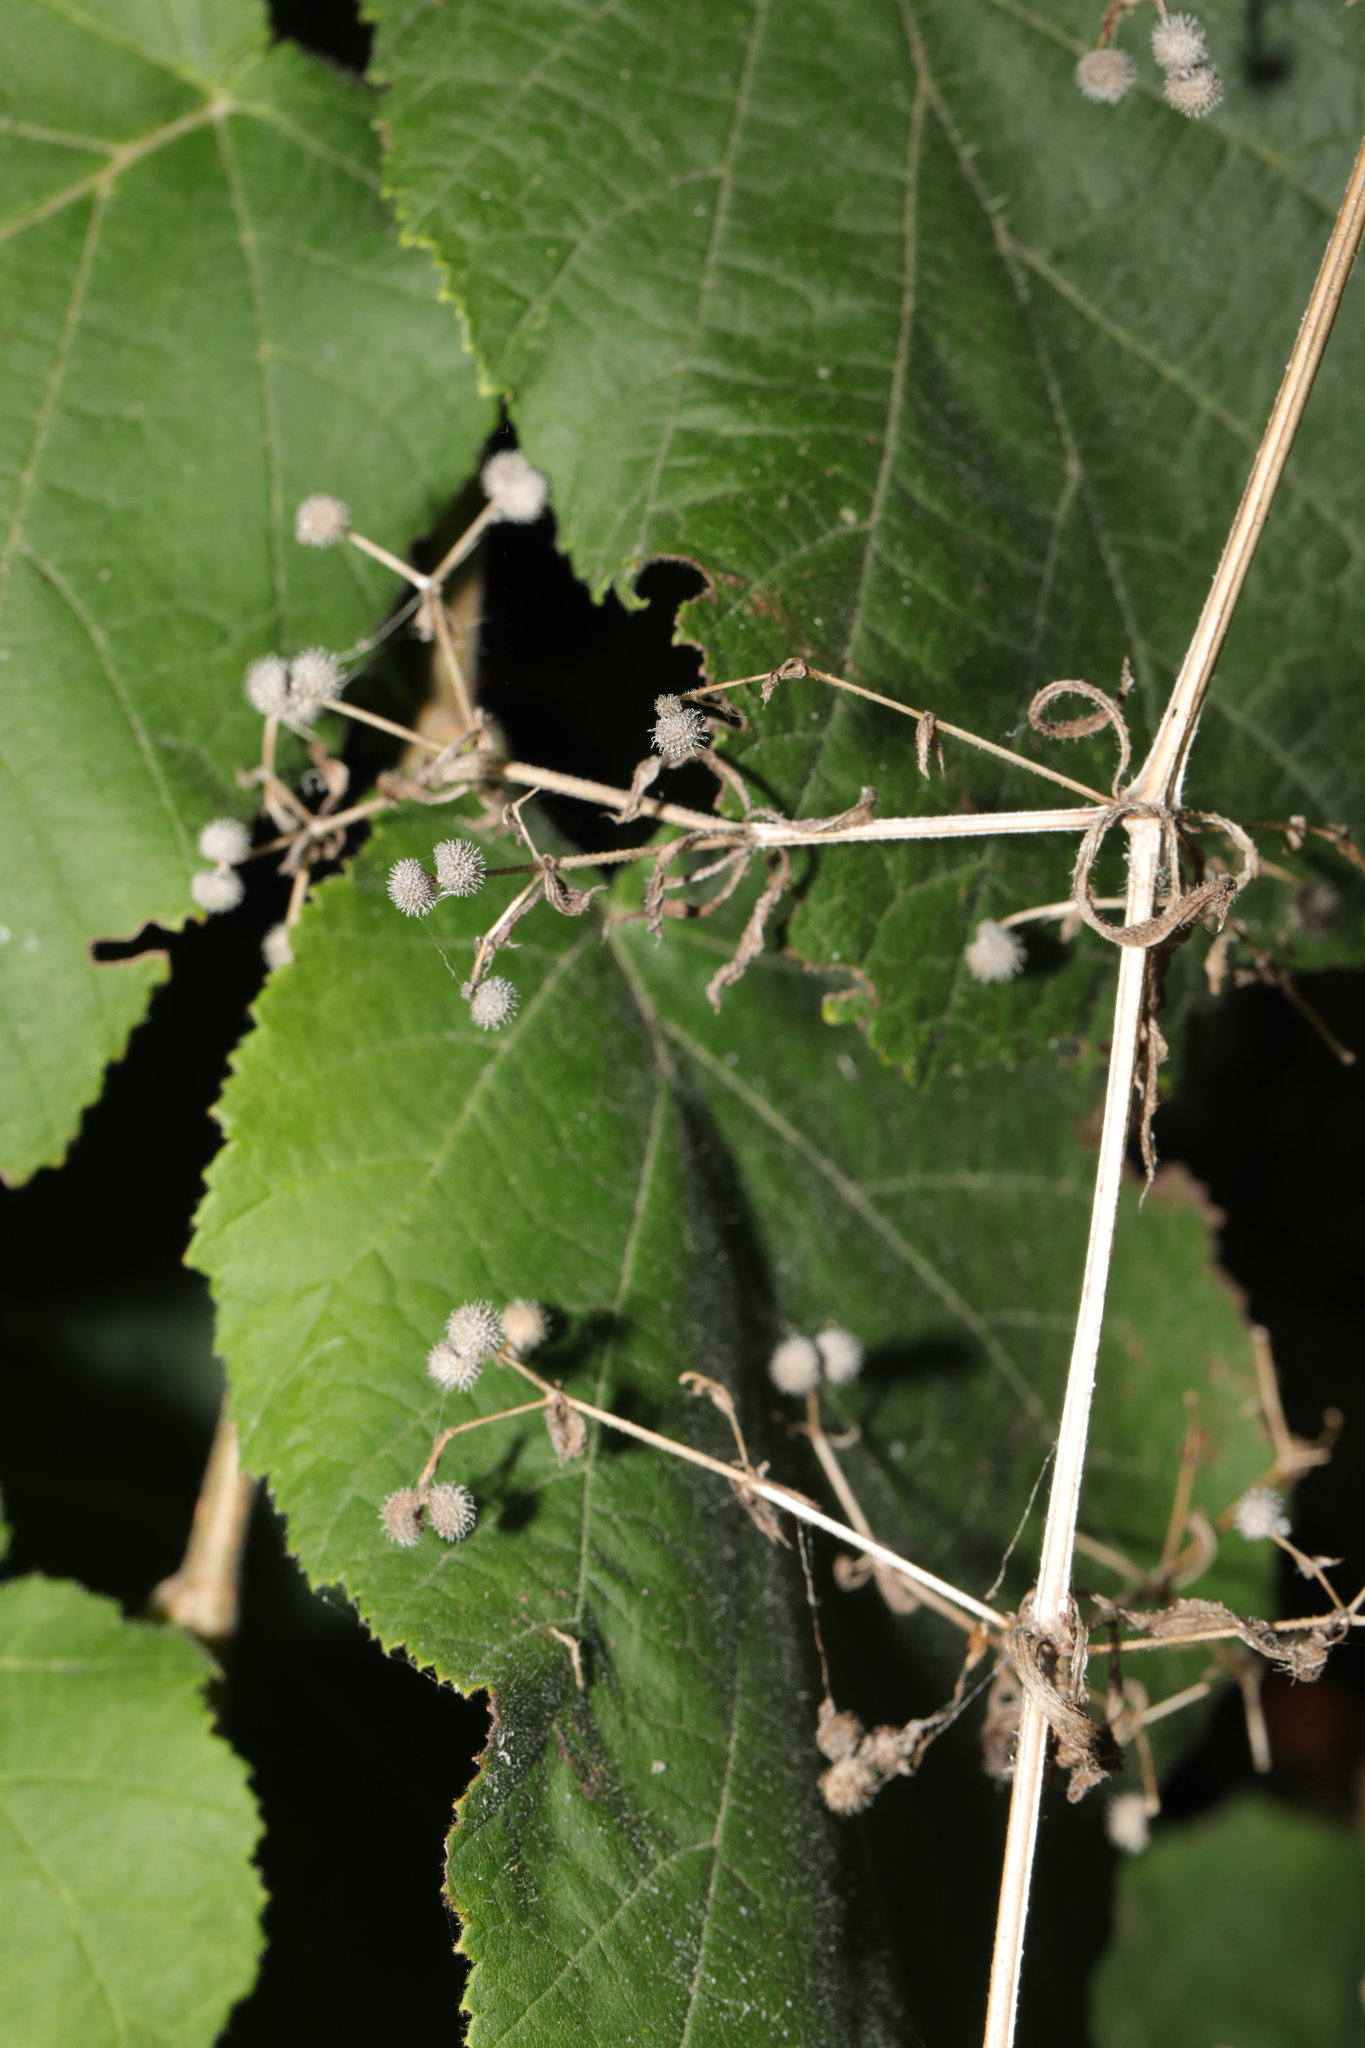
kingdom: Plantae
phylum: Tracheophyta
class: Magnoliopsida
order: Gentianales
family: Rubiaceae
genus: Galium
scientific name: Galium aparine
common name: Cleavers
